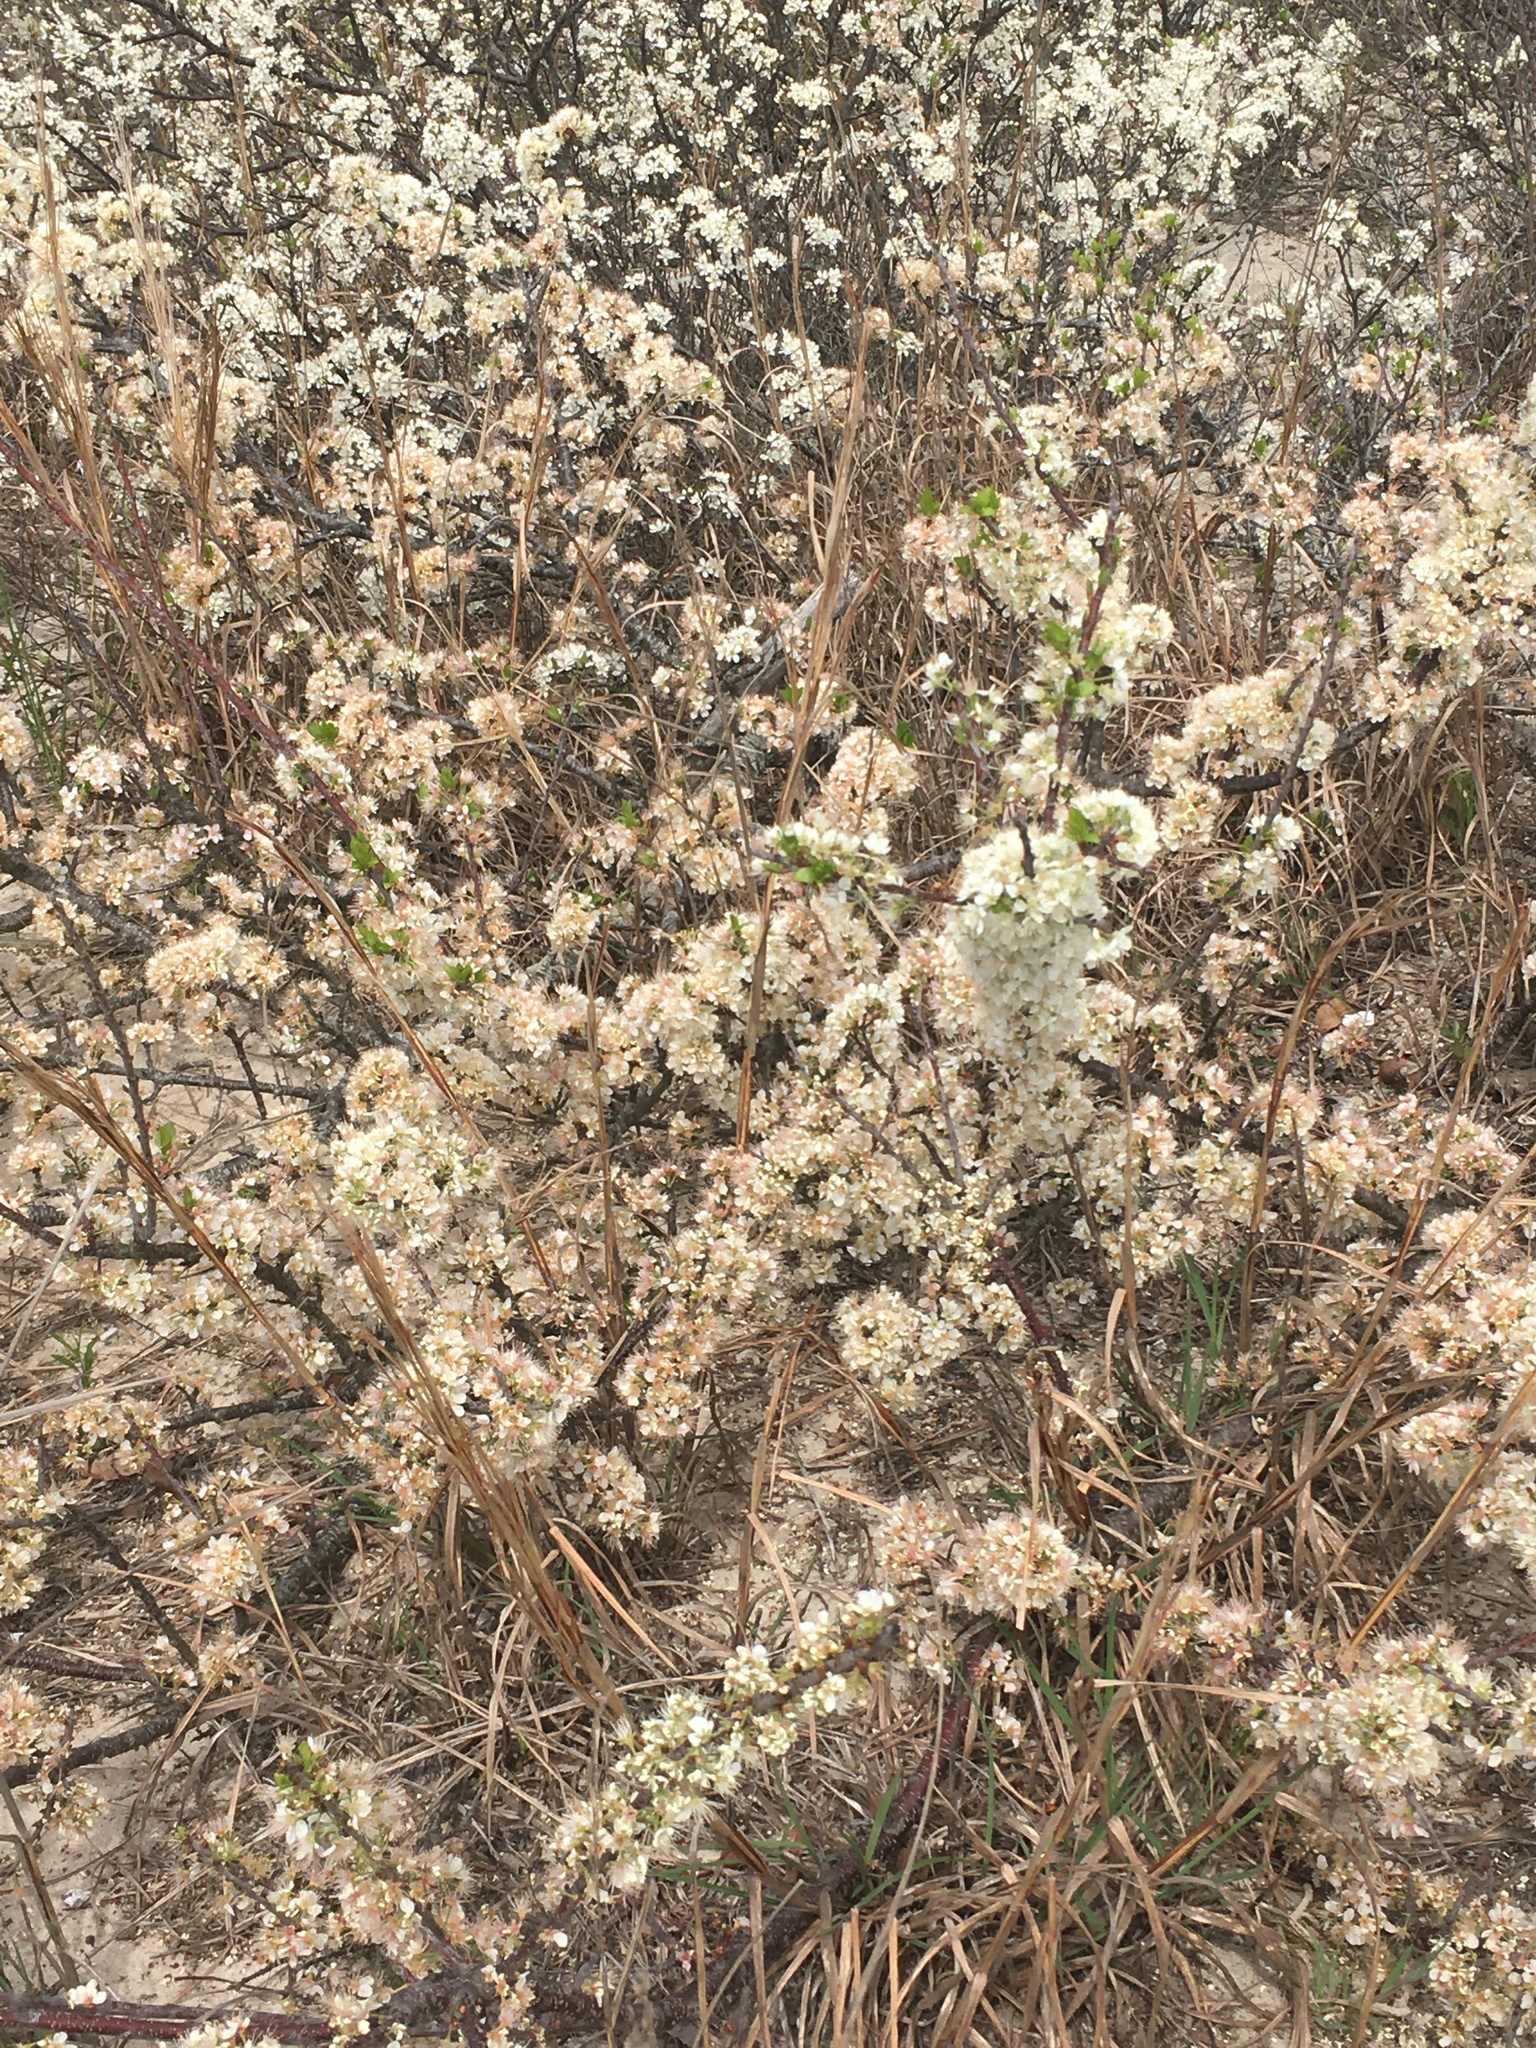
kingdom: Plantae
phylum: Tracheophyta
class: Magnoliopsida
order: Rosales
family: Rosaceae
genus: Prunus
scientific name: Prunus maritima
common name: Beach plum
